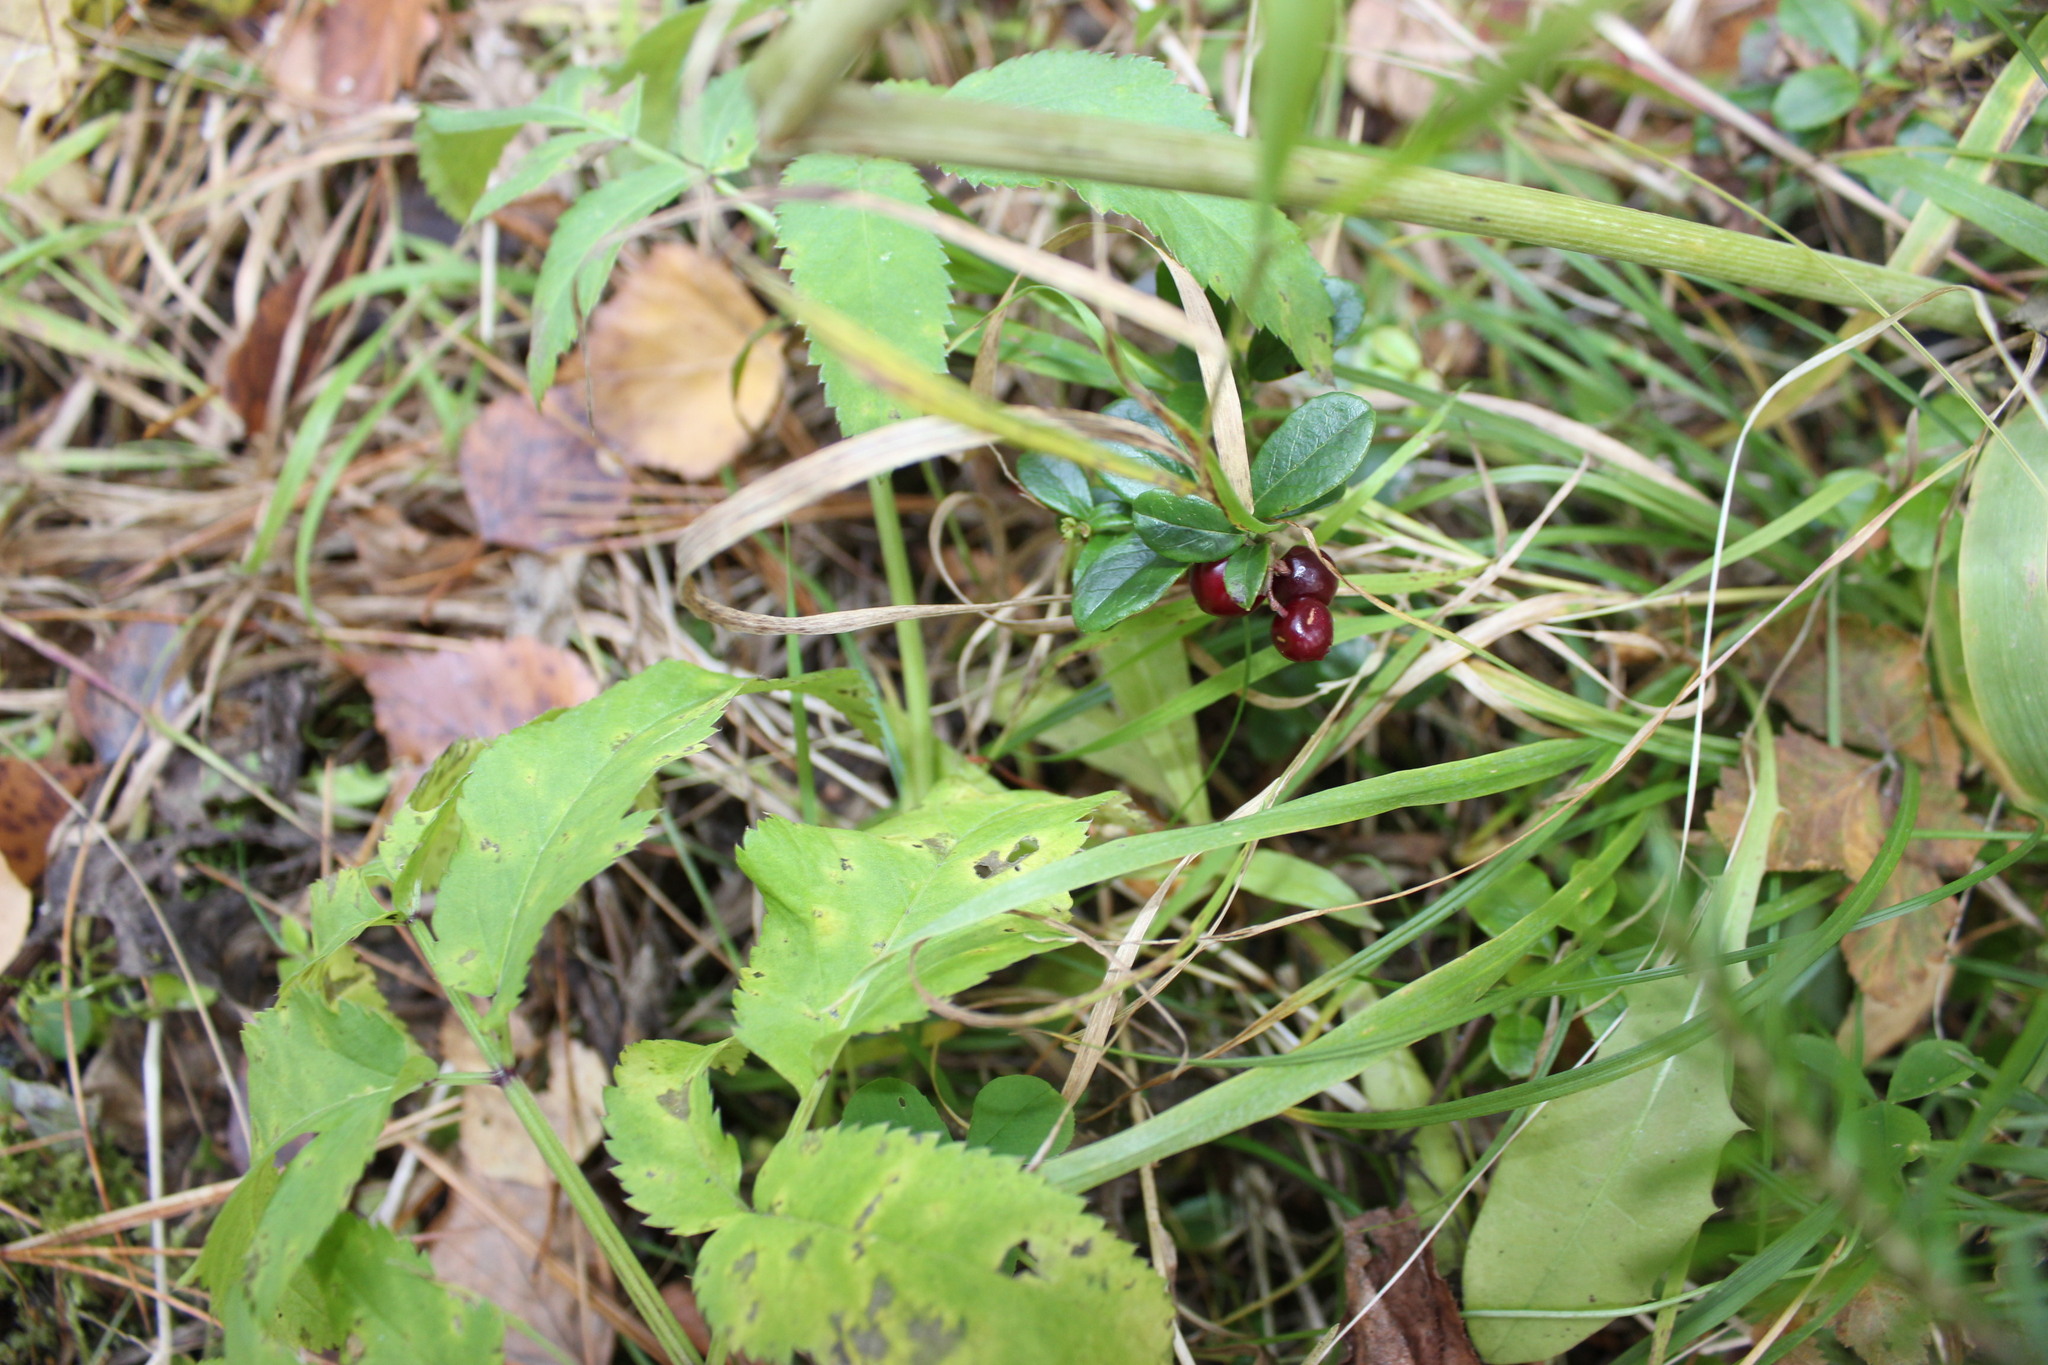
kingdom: Plantae
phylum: Tracheophyta
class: Magnoliopsida
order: Ericales
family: Ericaceae
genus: Vaccinium
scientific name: Vaccinium vitis-idaea
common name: Cowberry
